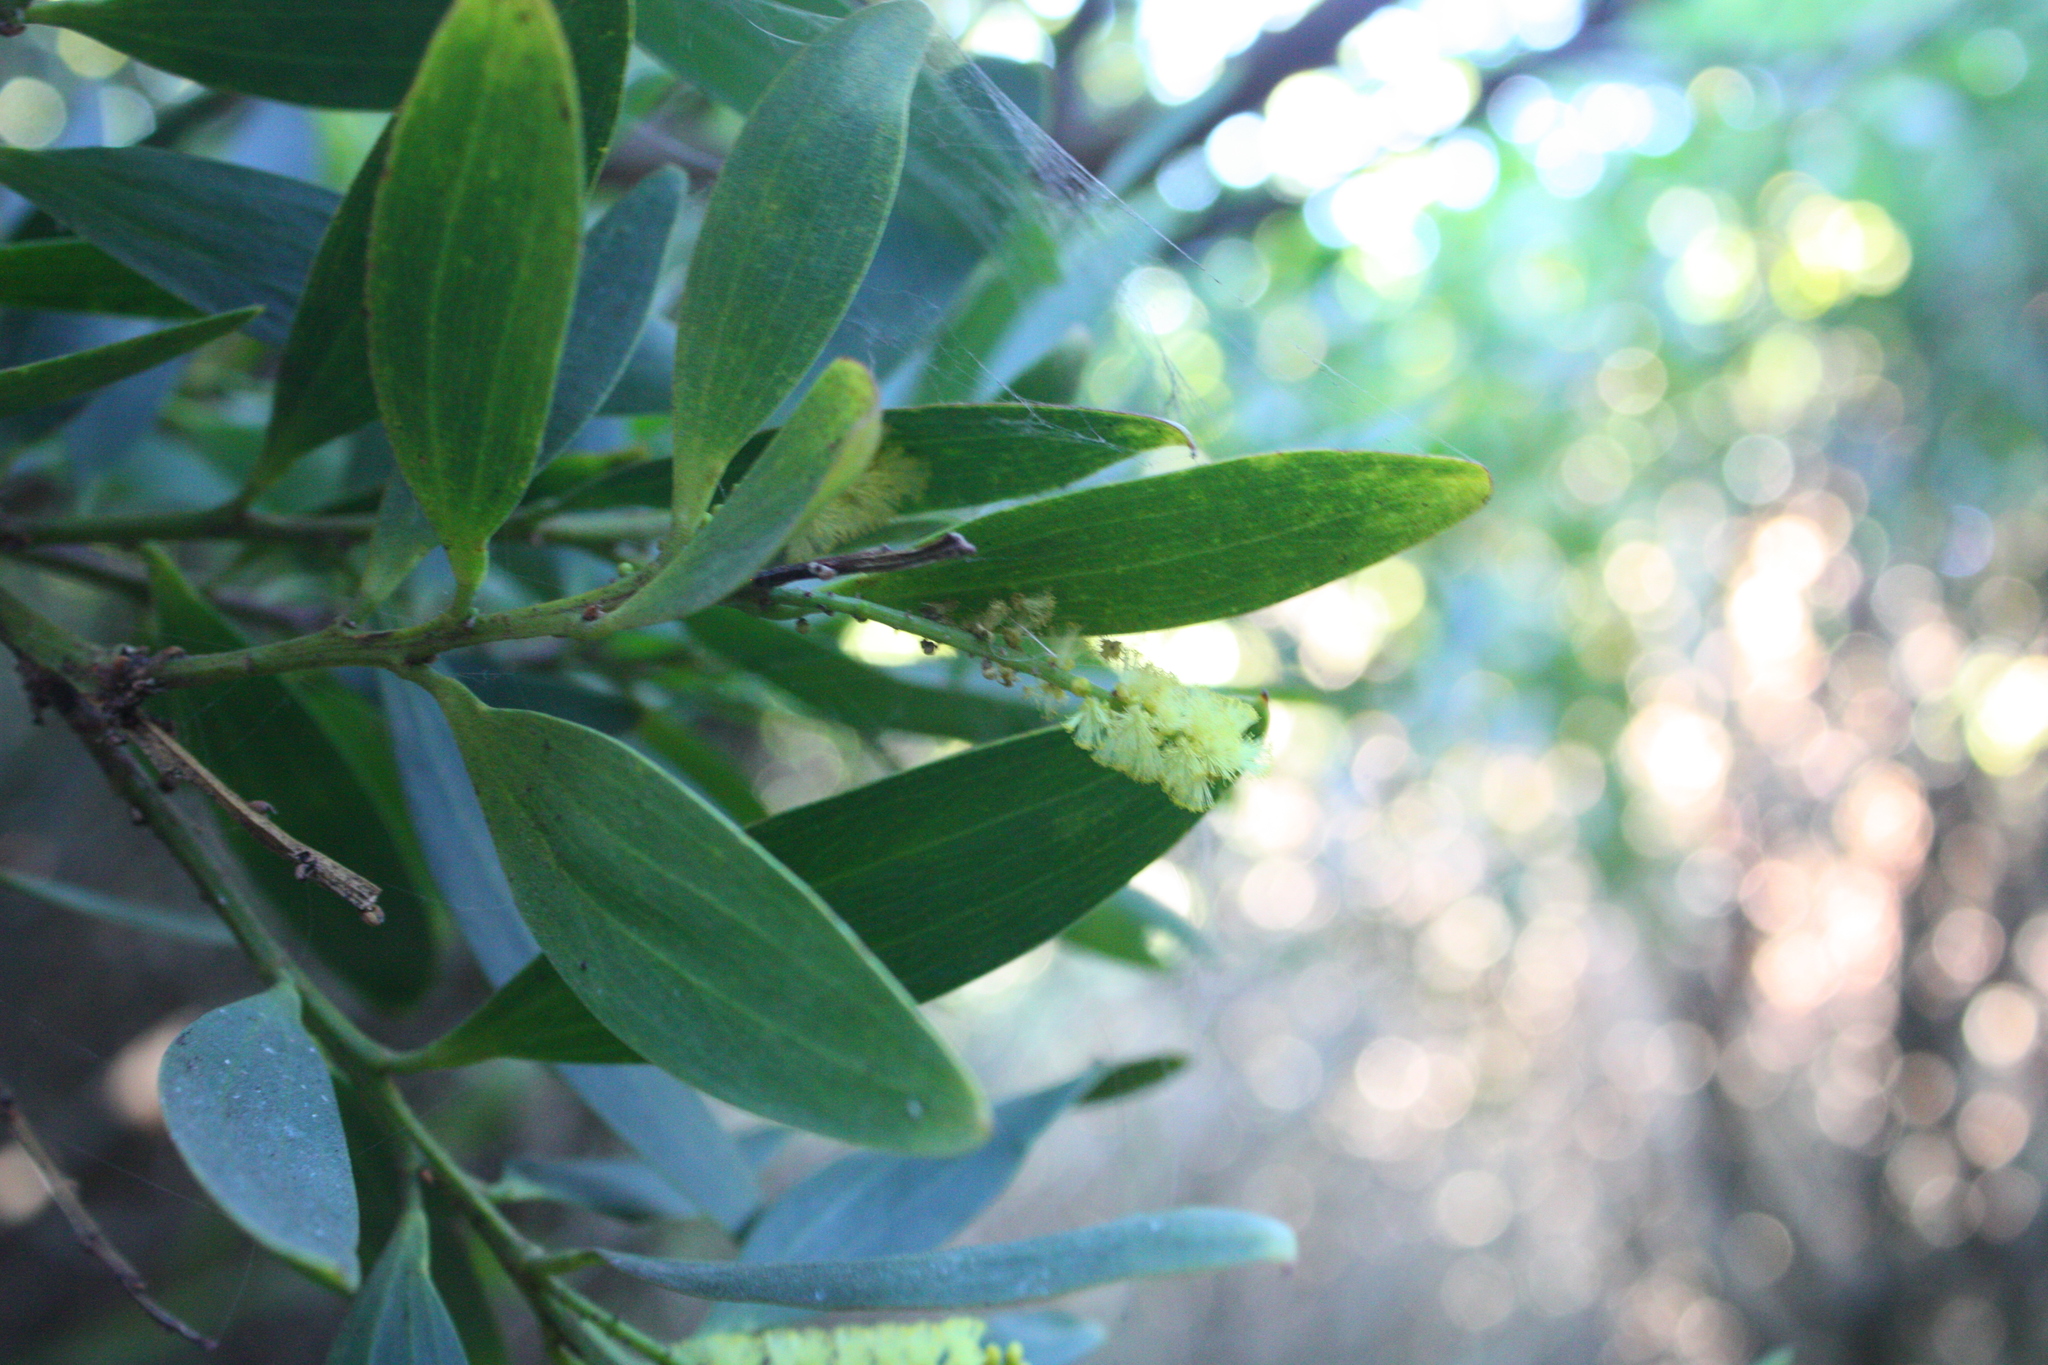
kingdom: Plantae
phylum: Tracheophyta
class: Magnoliopsida
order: Fabales
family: Fabaceae
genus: Acacia
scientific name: Acacia longifolia
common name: Sydney golden wattle
